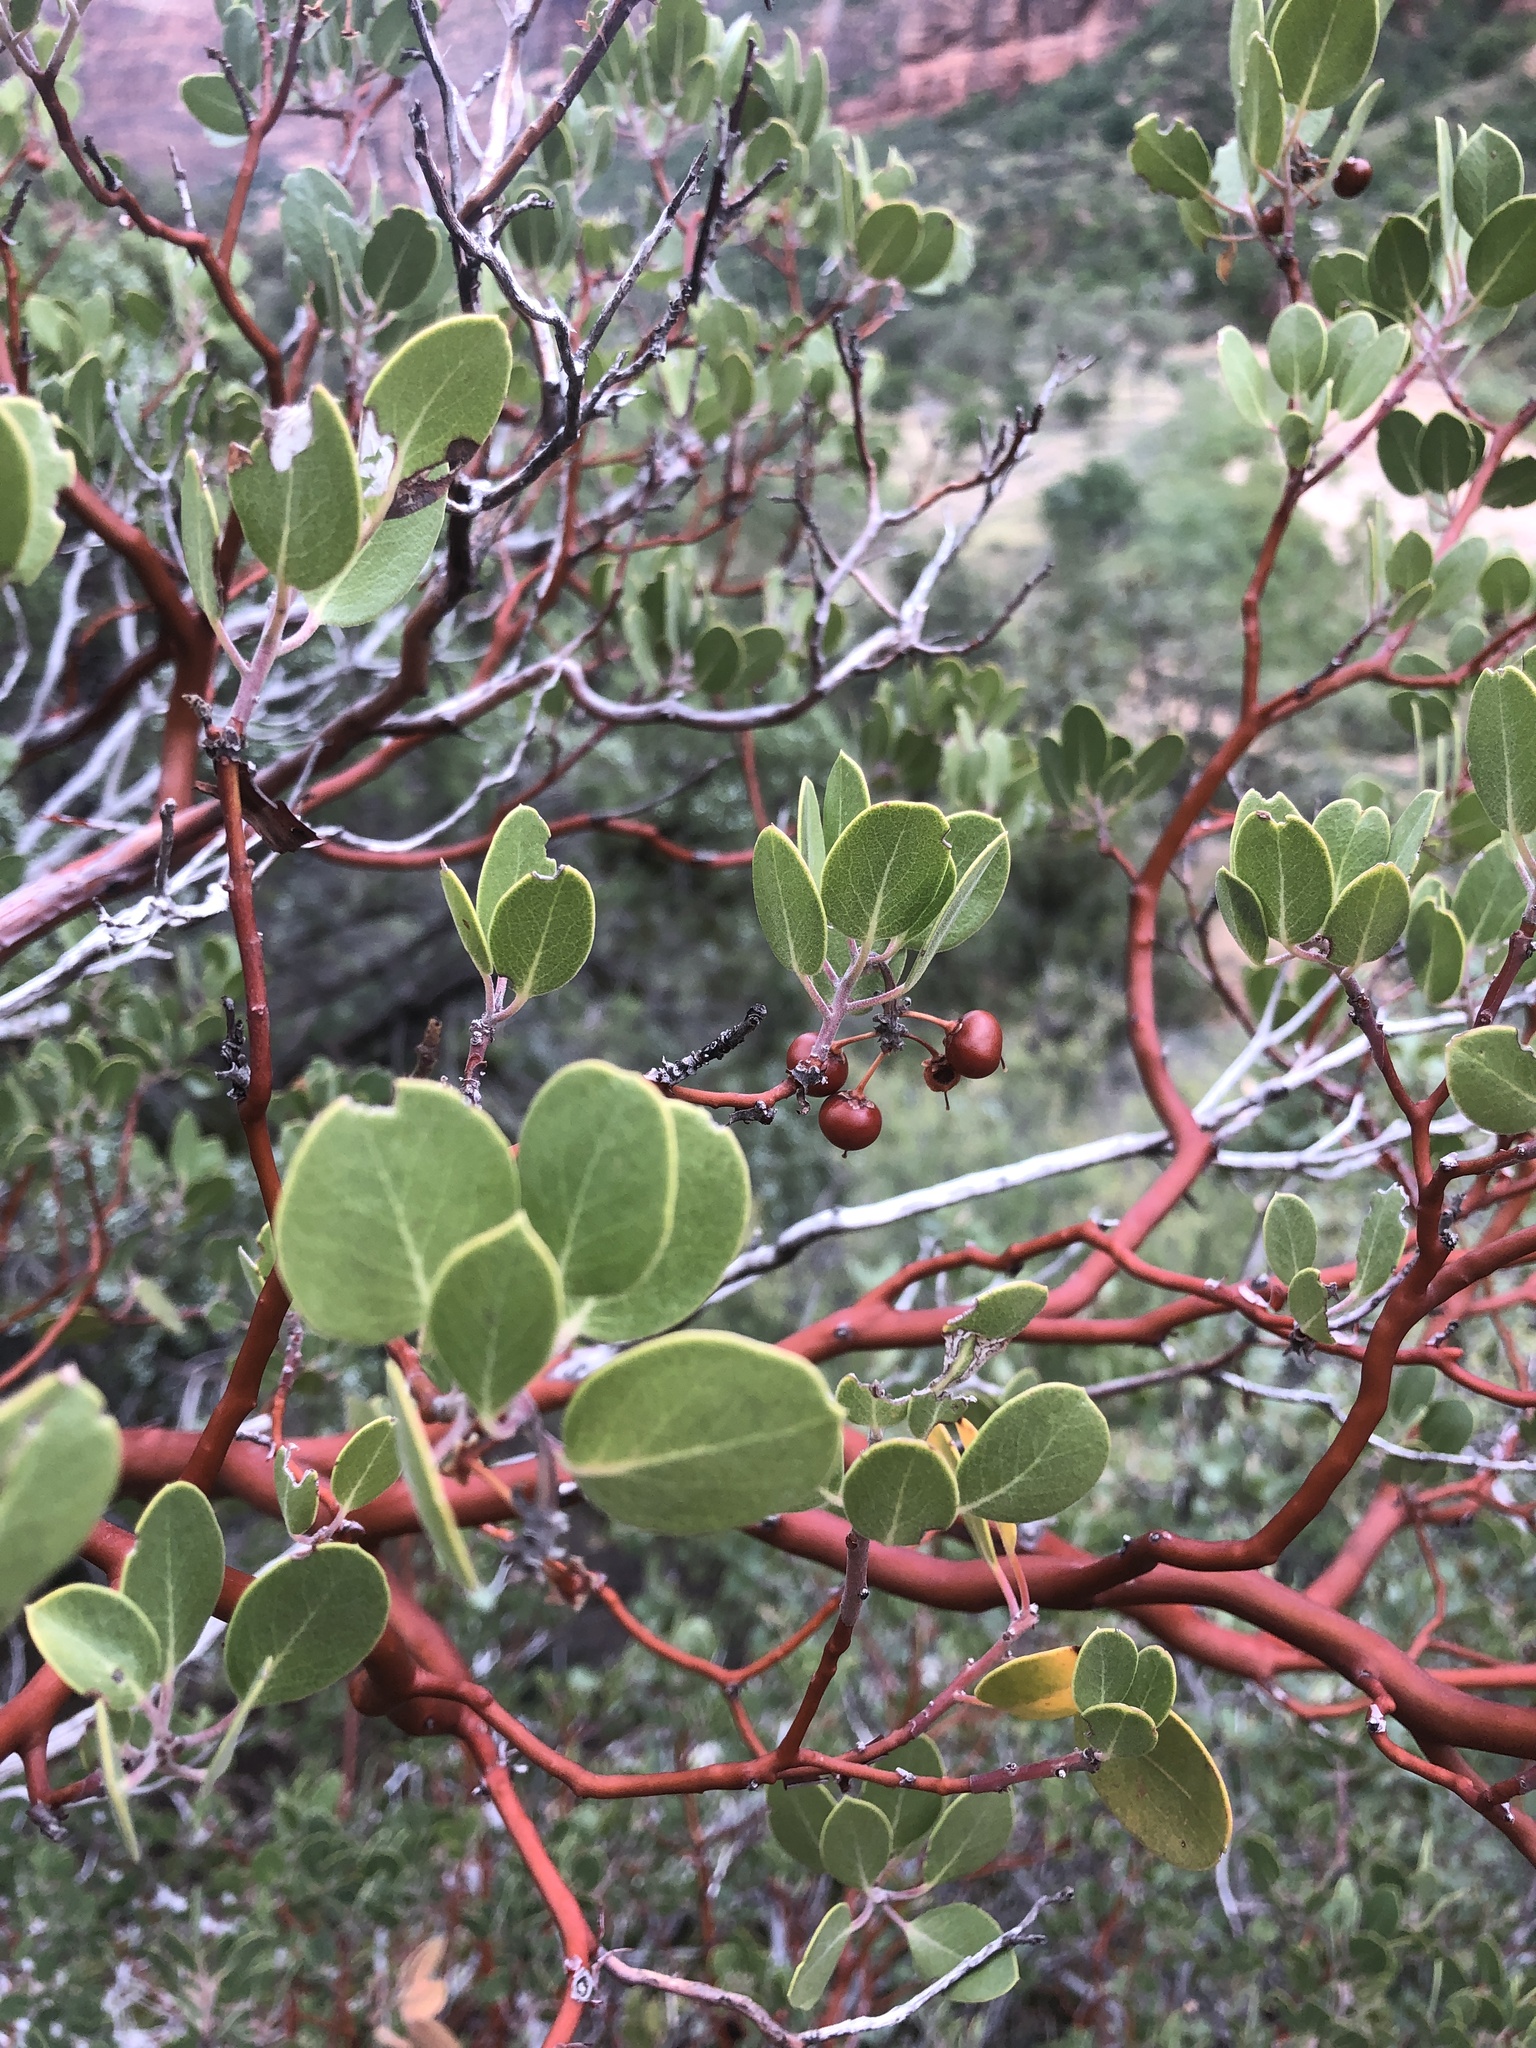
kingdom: Plantae
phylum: Tracheophyta
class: Magnoliopsida
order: Ericales
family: Ericaceae
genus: Arctostaphylos
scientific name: Arctostaphylos pungens
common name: Mexican manzanita
